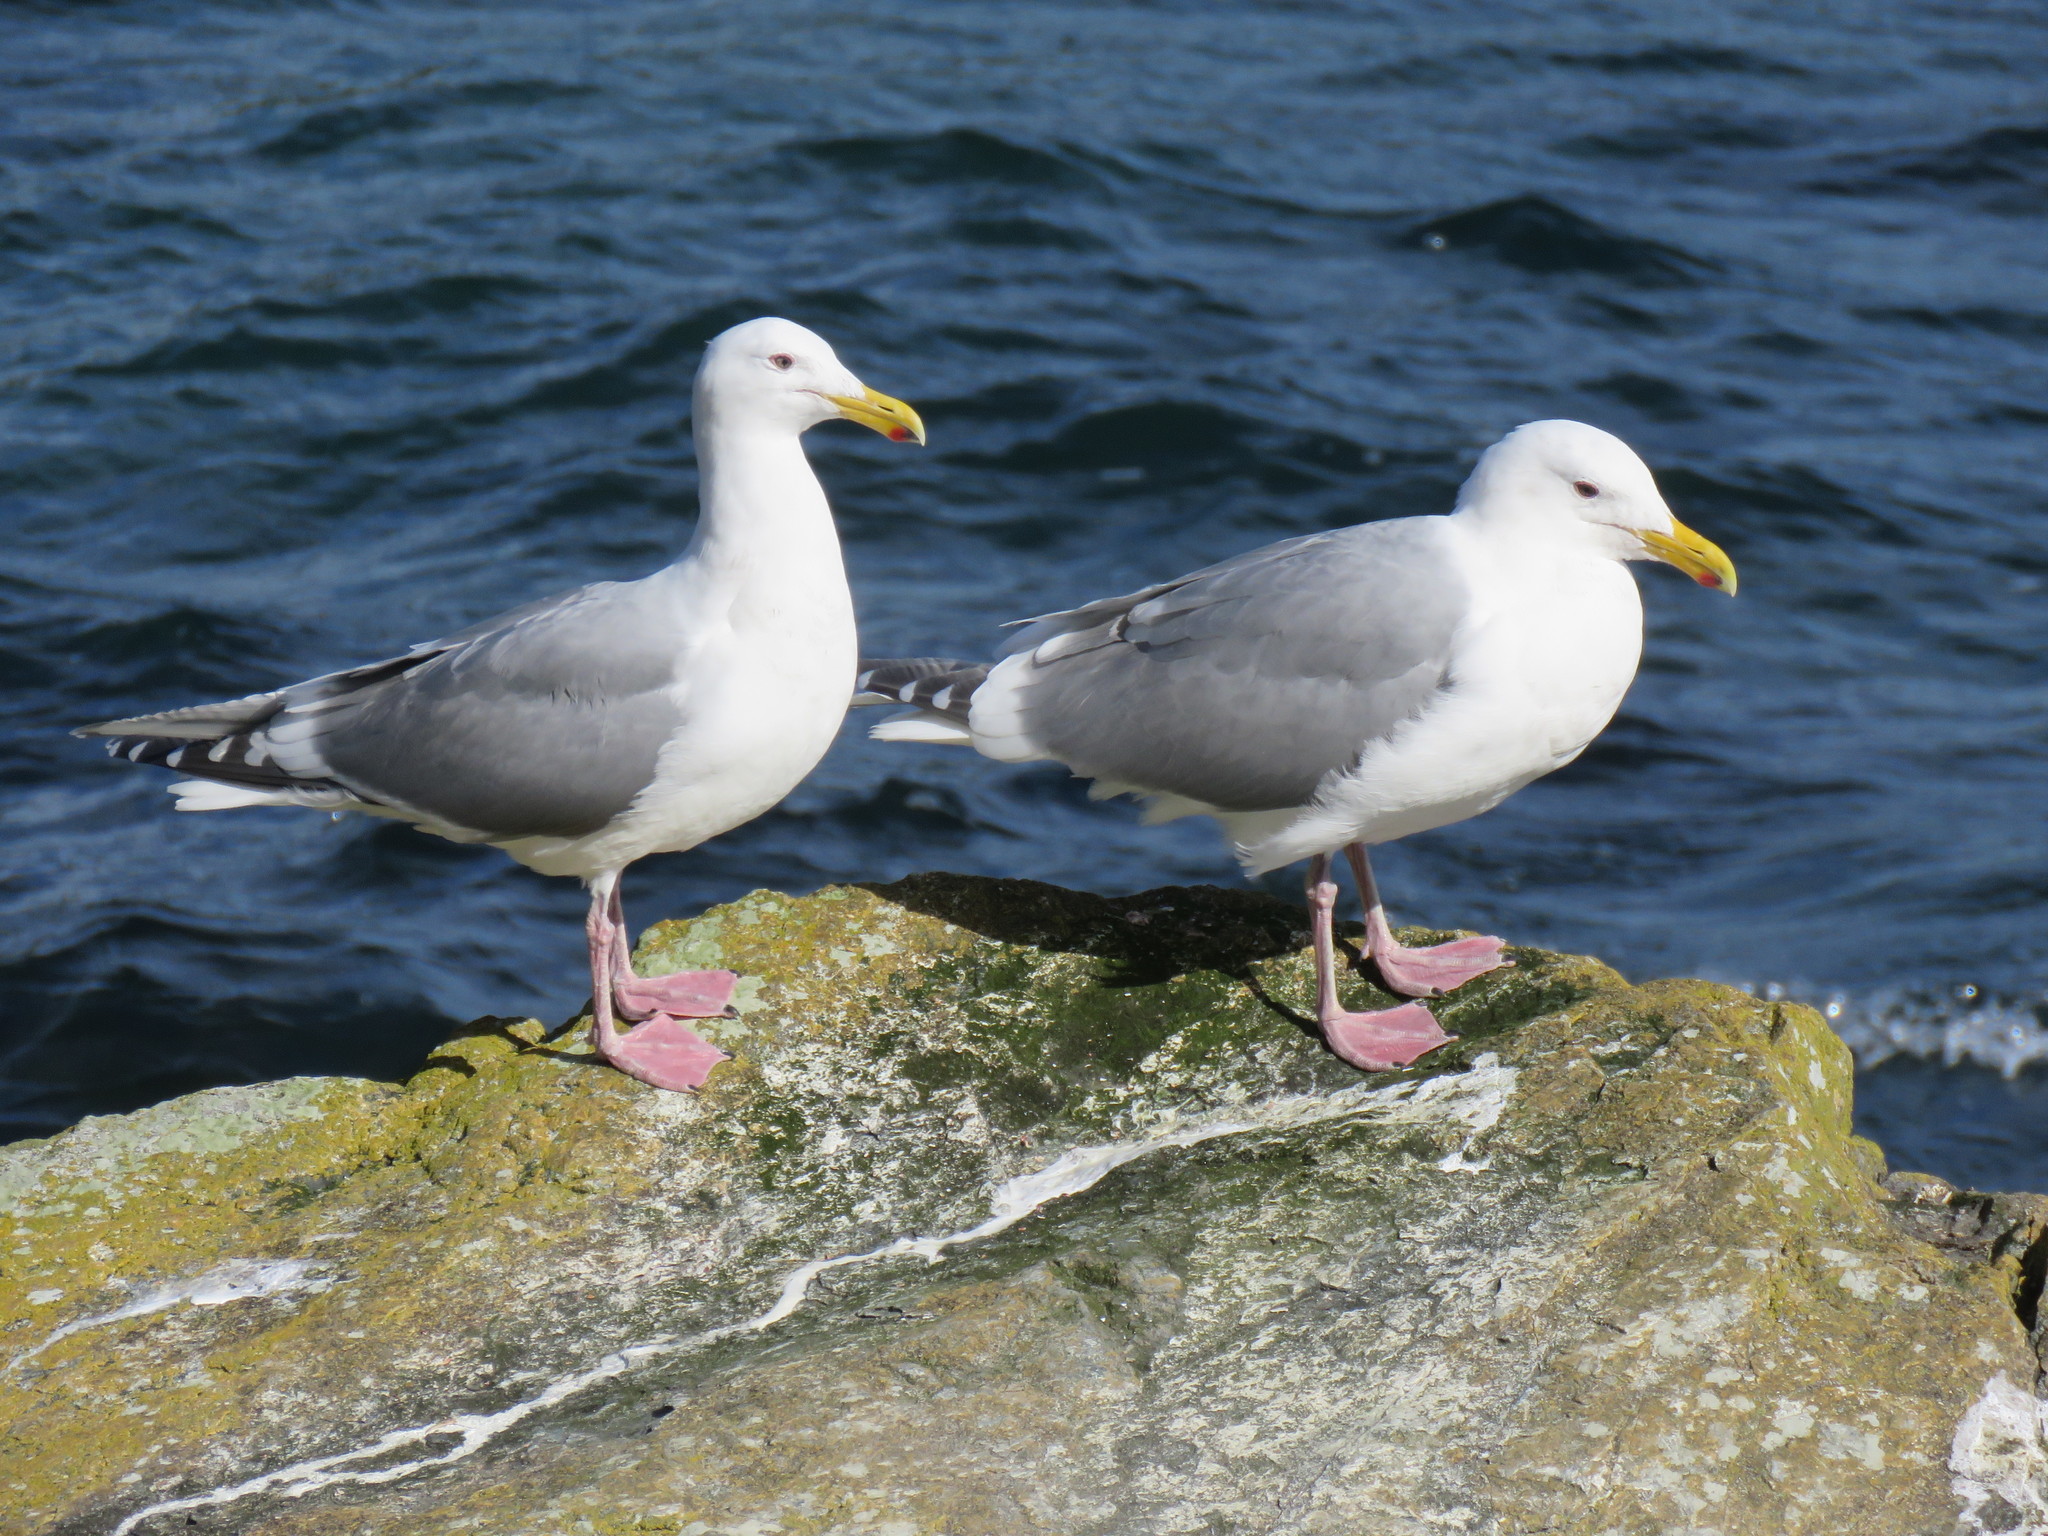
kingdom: Animalia
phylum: Chordata
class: Aves
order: Charadriiformes
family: Laridae
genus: Larus
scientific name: Larus
